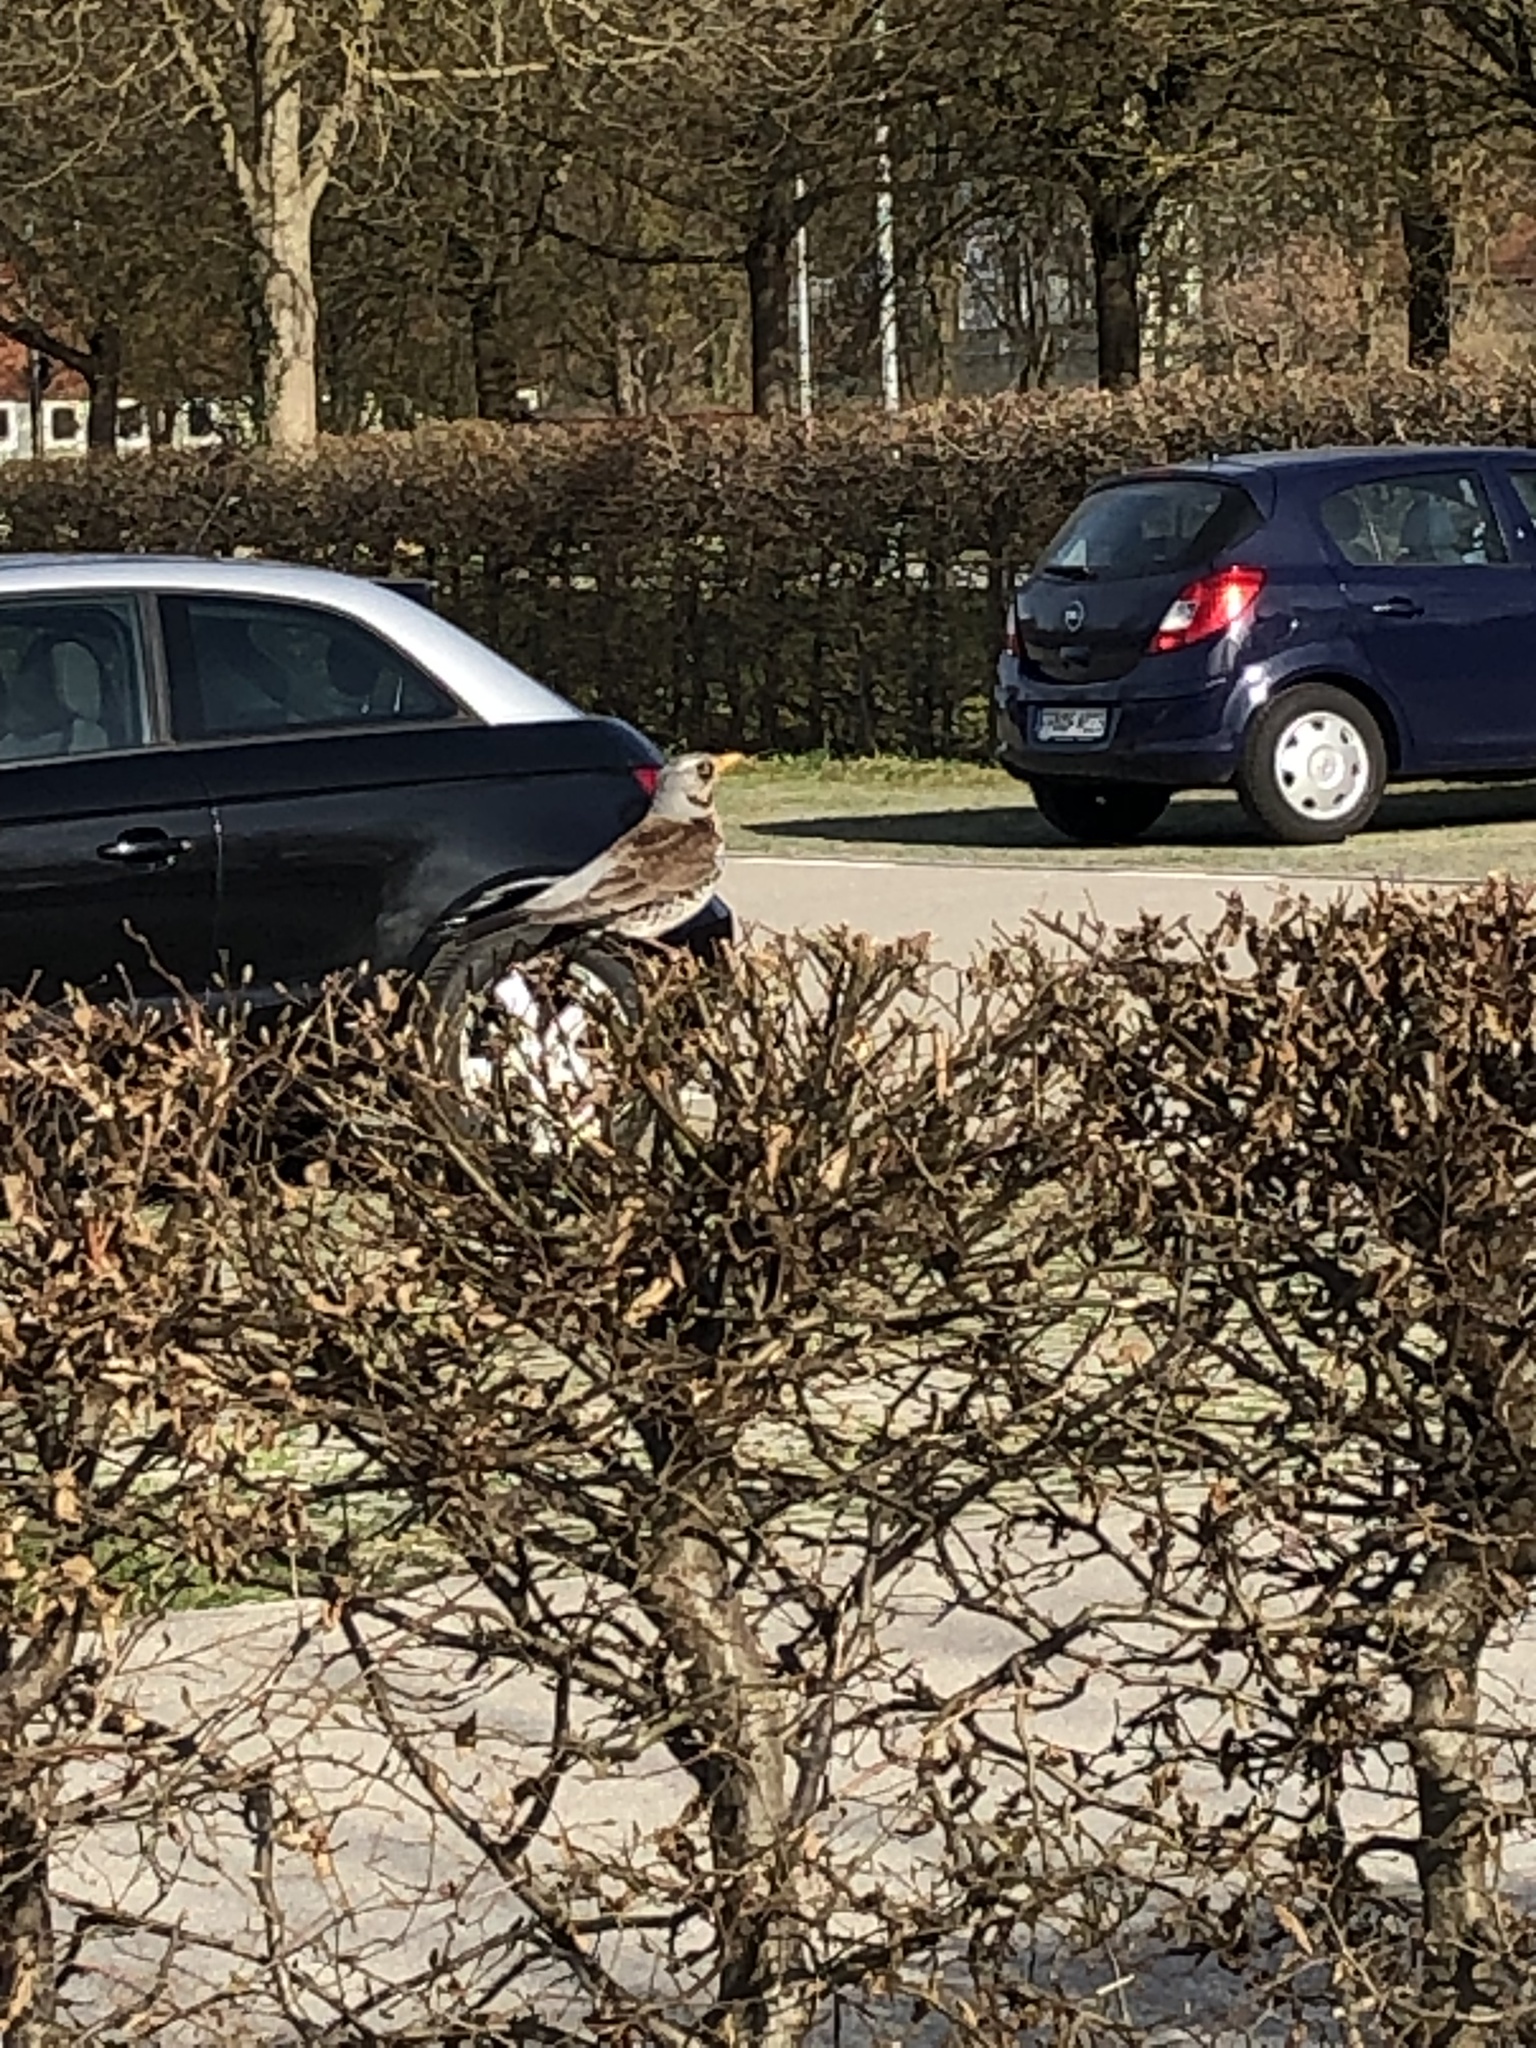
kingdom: Animalia
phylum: Chordata
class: Aves
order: Passeriformes
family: Turdidae
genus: Turdus
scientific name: Turdus pilaris
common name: Fieldfare
